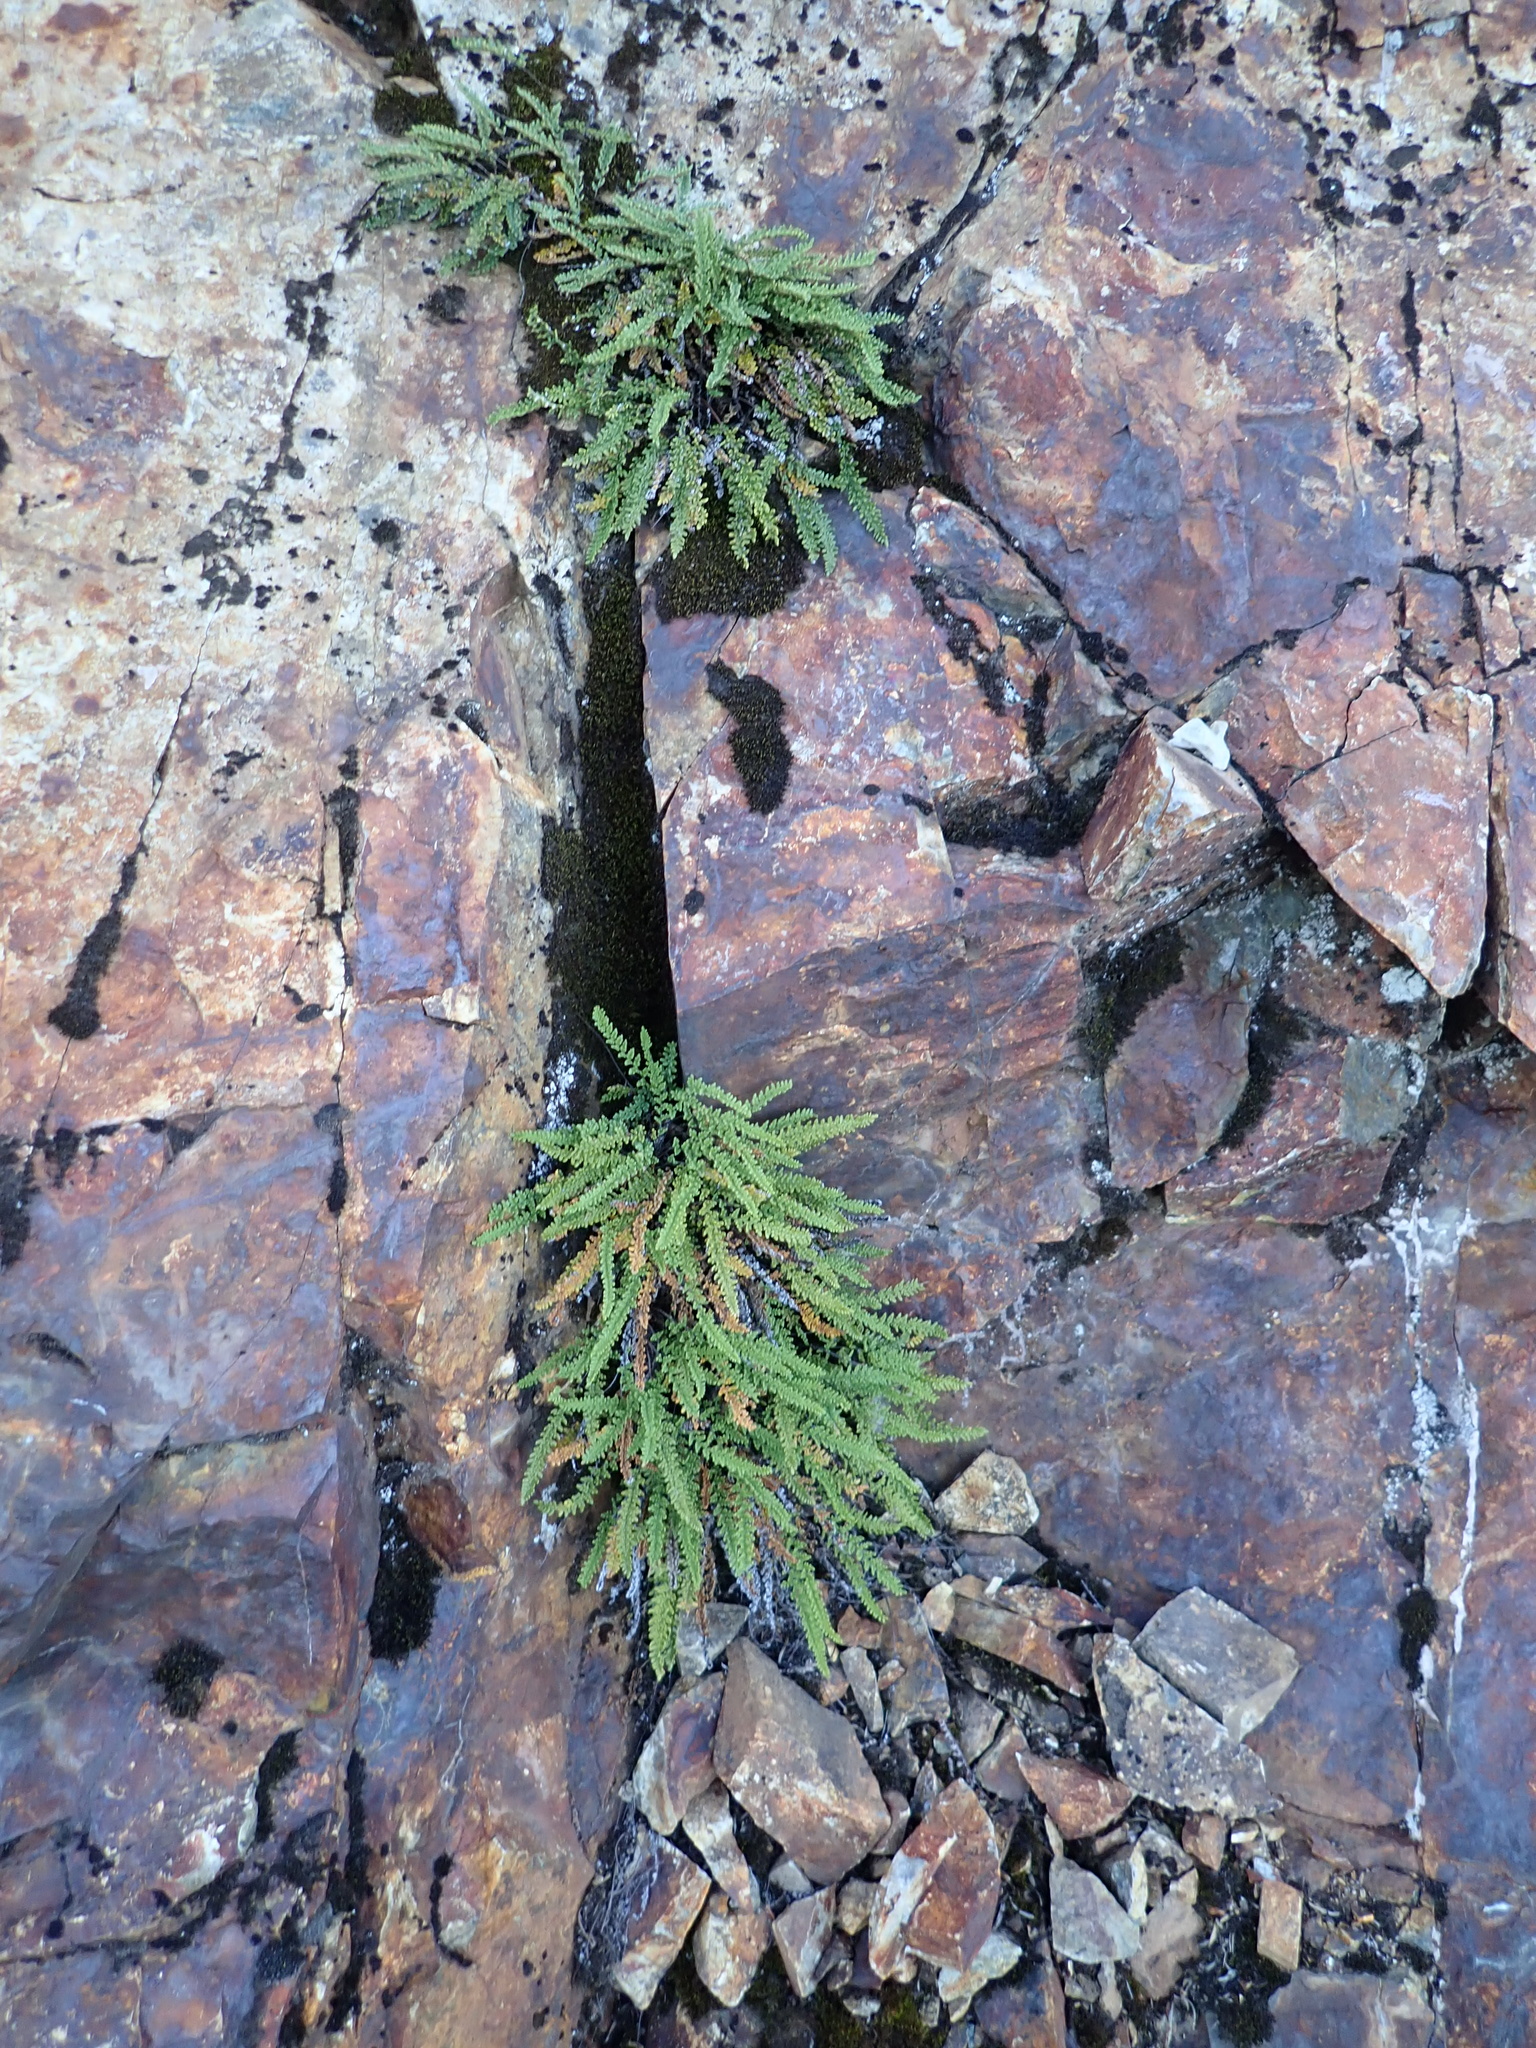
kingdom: Plantae
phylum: Tracheophyta
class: Polypodiopsida
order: Polypodiales
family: Pteridaceae
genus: Myriopteris
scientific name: Myriopteris gracillima
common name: Lace fern
